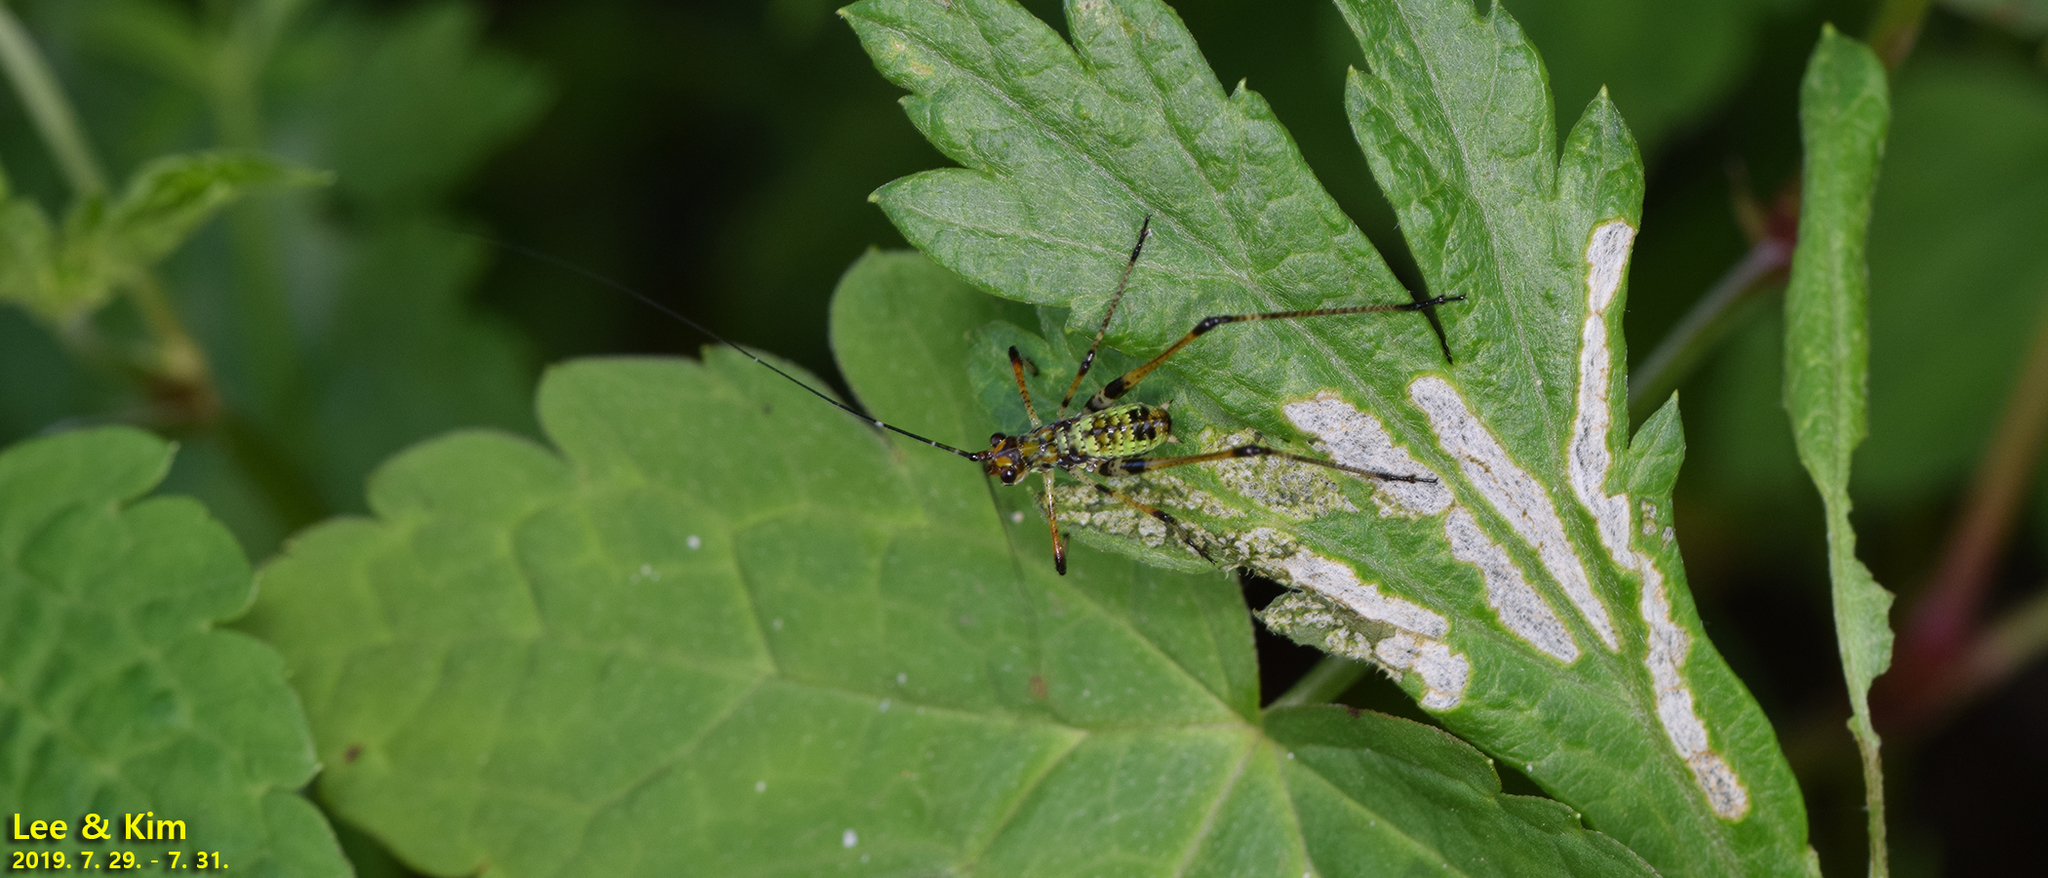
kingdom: Animalia
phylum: Arthropoda
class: Insecta
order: Orthoptera
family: Tettigoniidae
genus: Phaneroptera
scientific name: Phaneroptera nigroantennata
